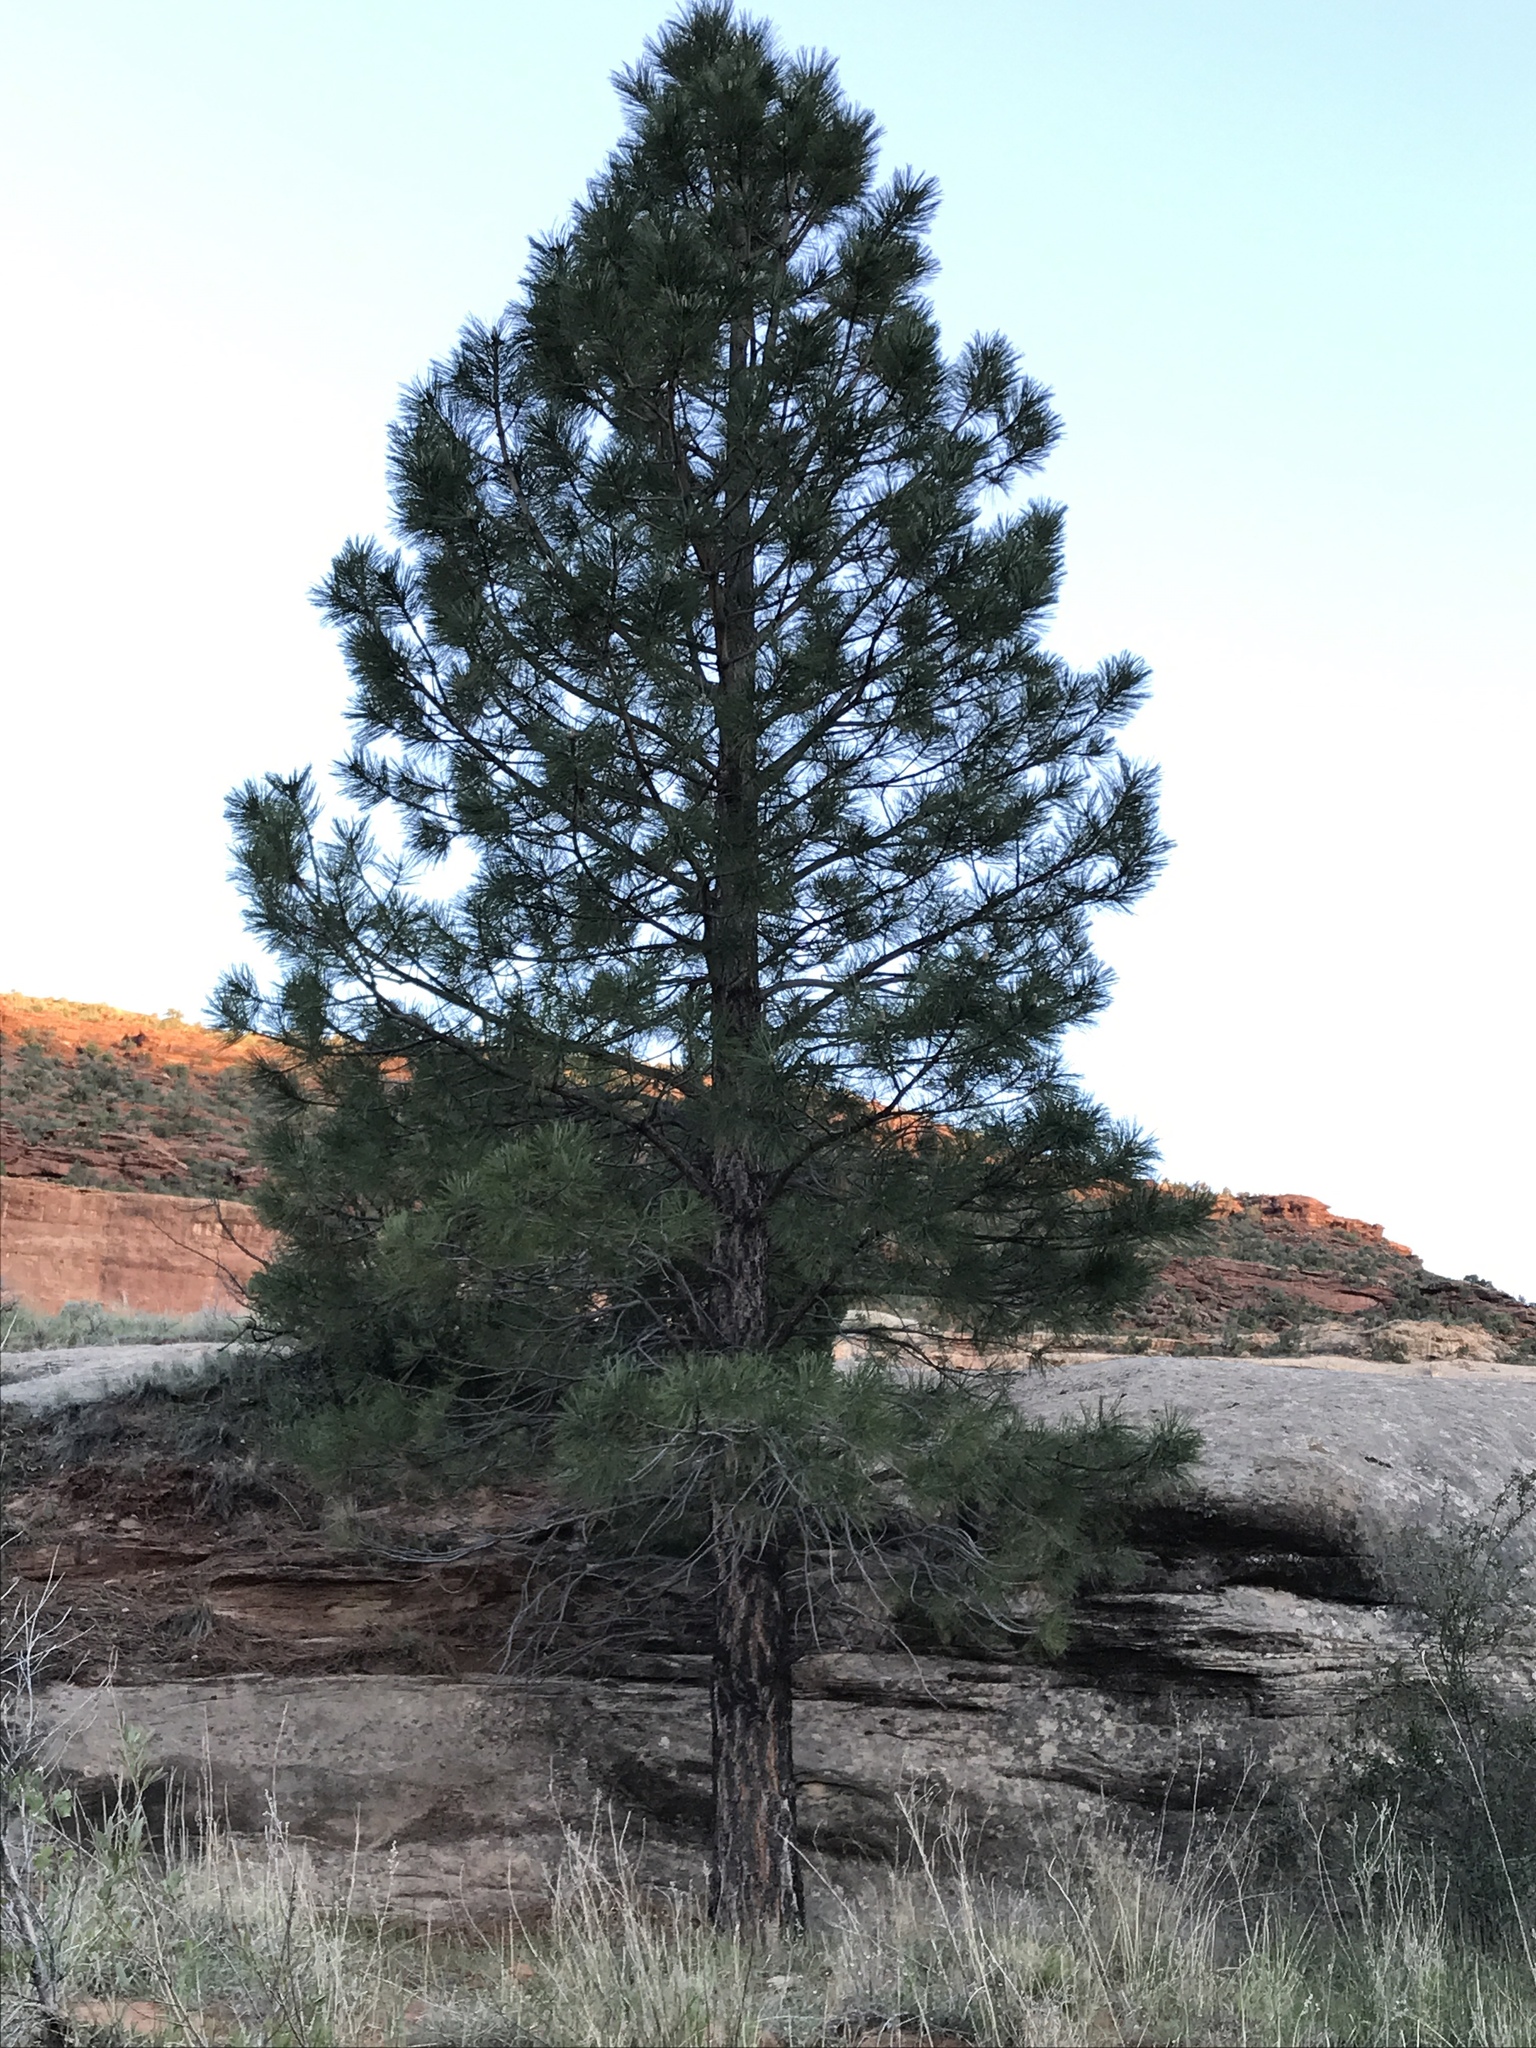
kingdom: Plantae
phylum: Tracheophyta
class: Pinopsida
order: Pinales
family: Pinaceae
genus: Pinus
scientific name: Pinus ponderosa
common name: Western yellow-pine
